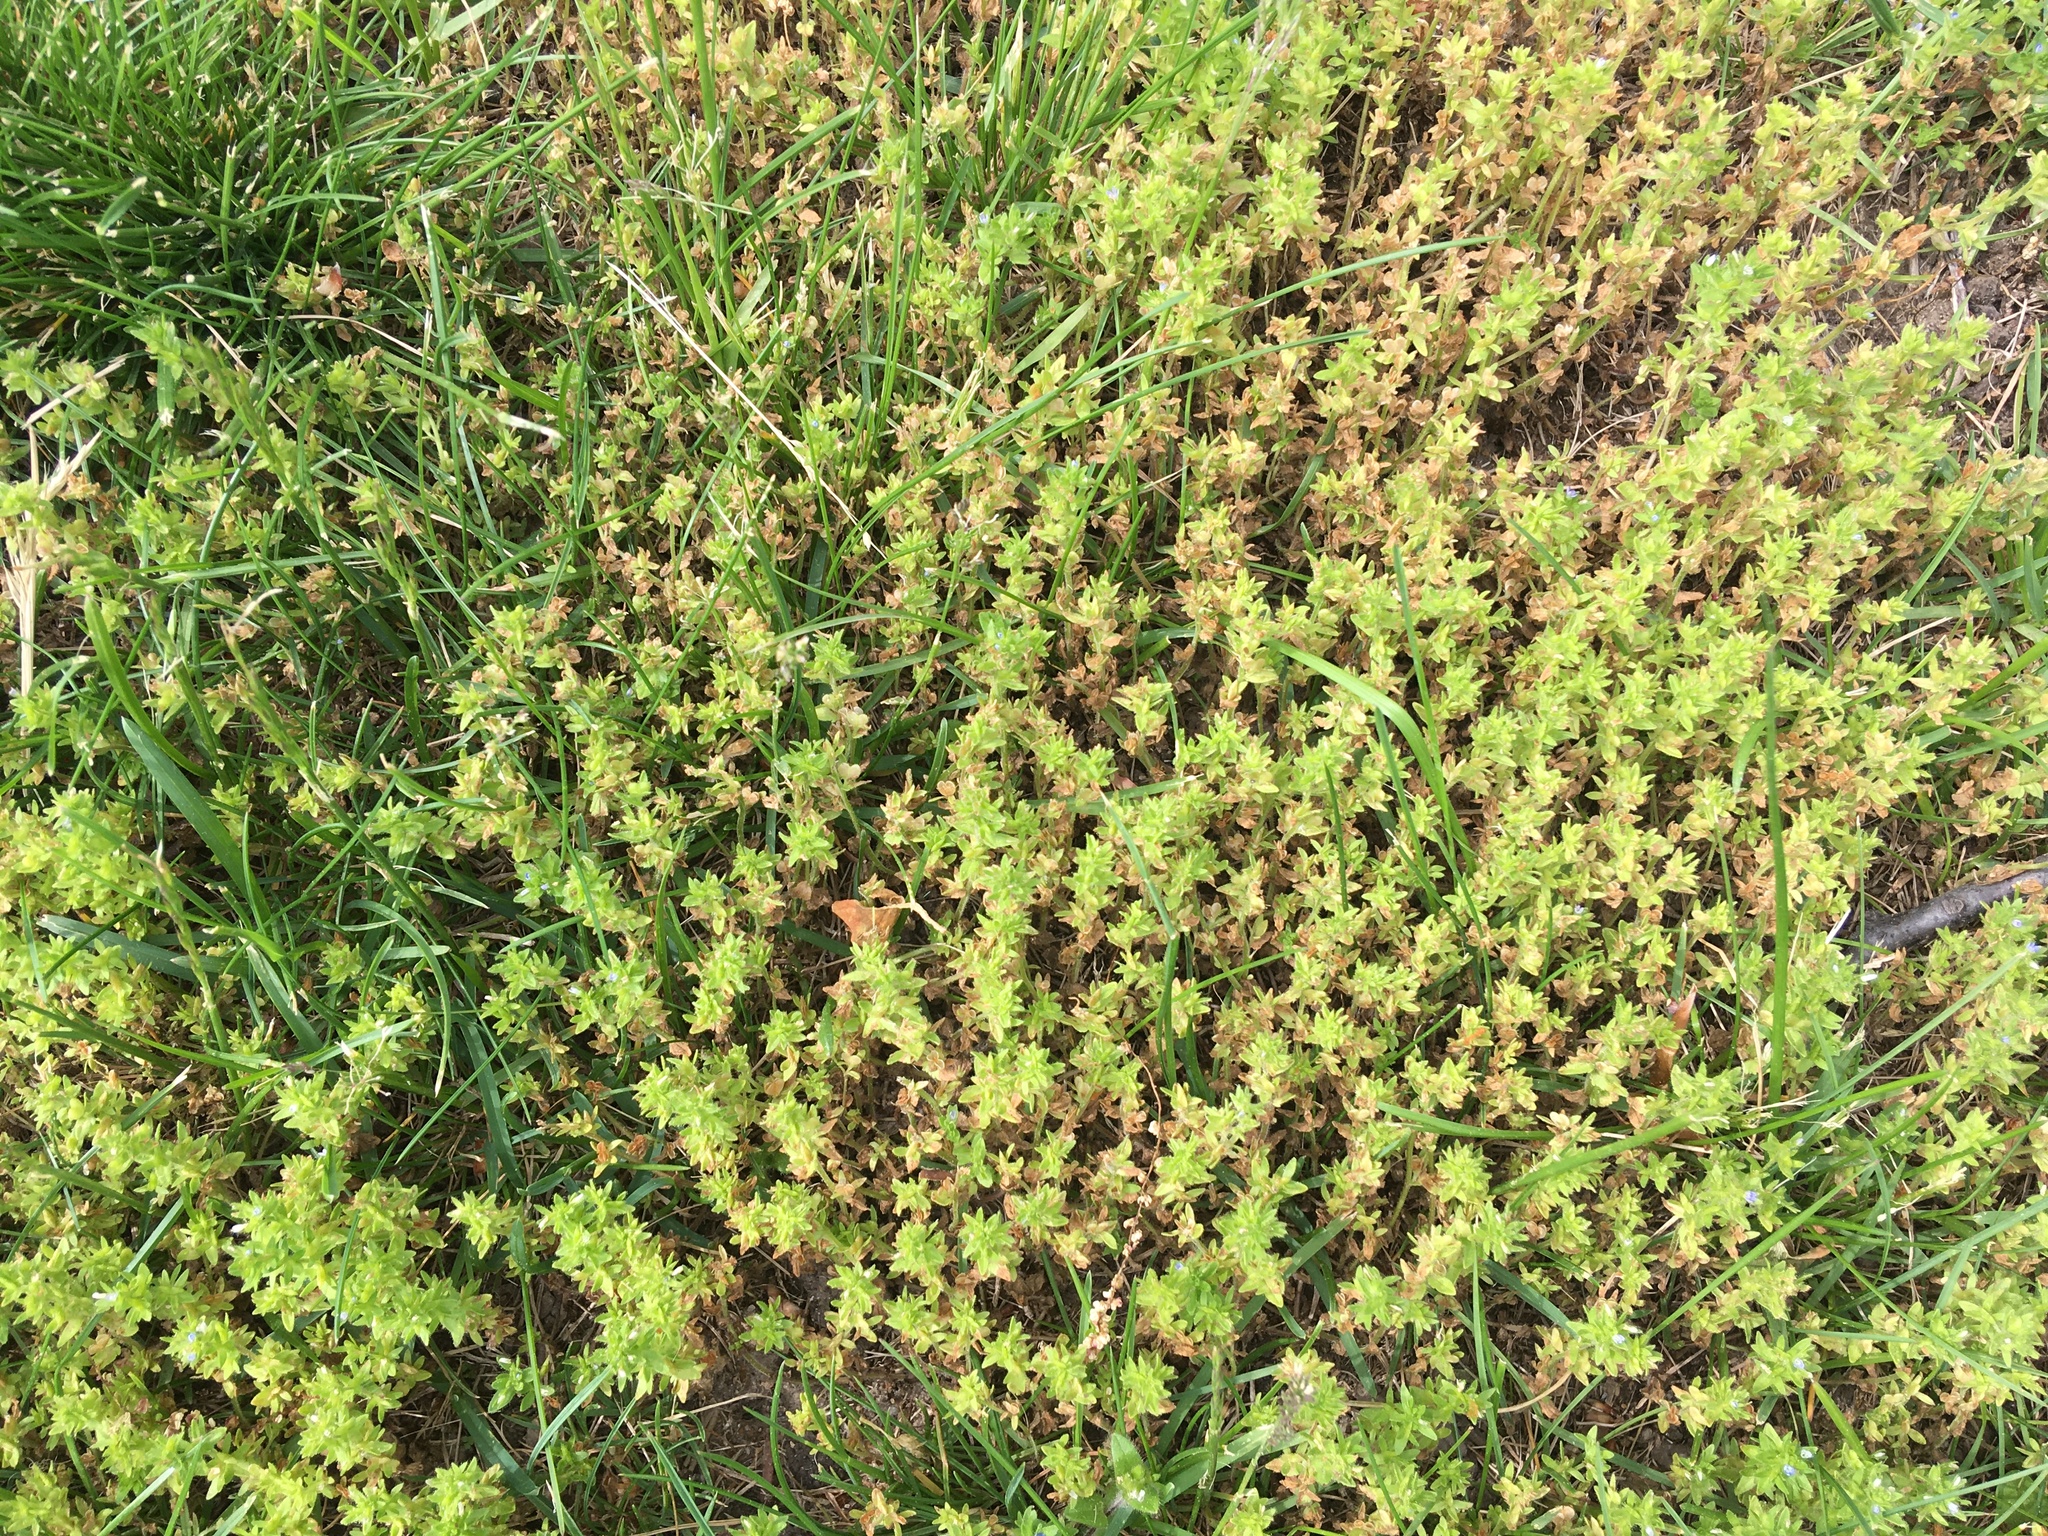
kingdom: Plantae
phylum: Tracheophyta
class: Magnoliopsida
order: Lamiales
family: Plantaginaceae
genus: Veronica
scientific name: Veronica arvensis
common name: Corn speedwell
